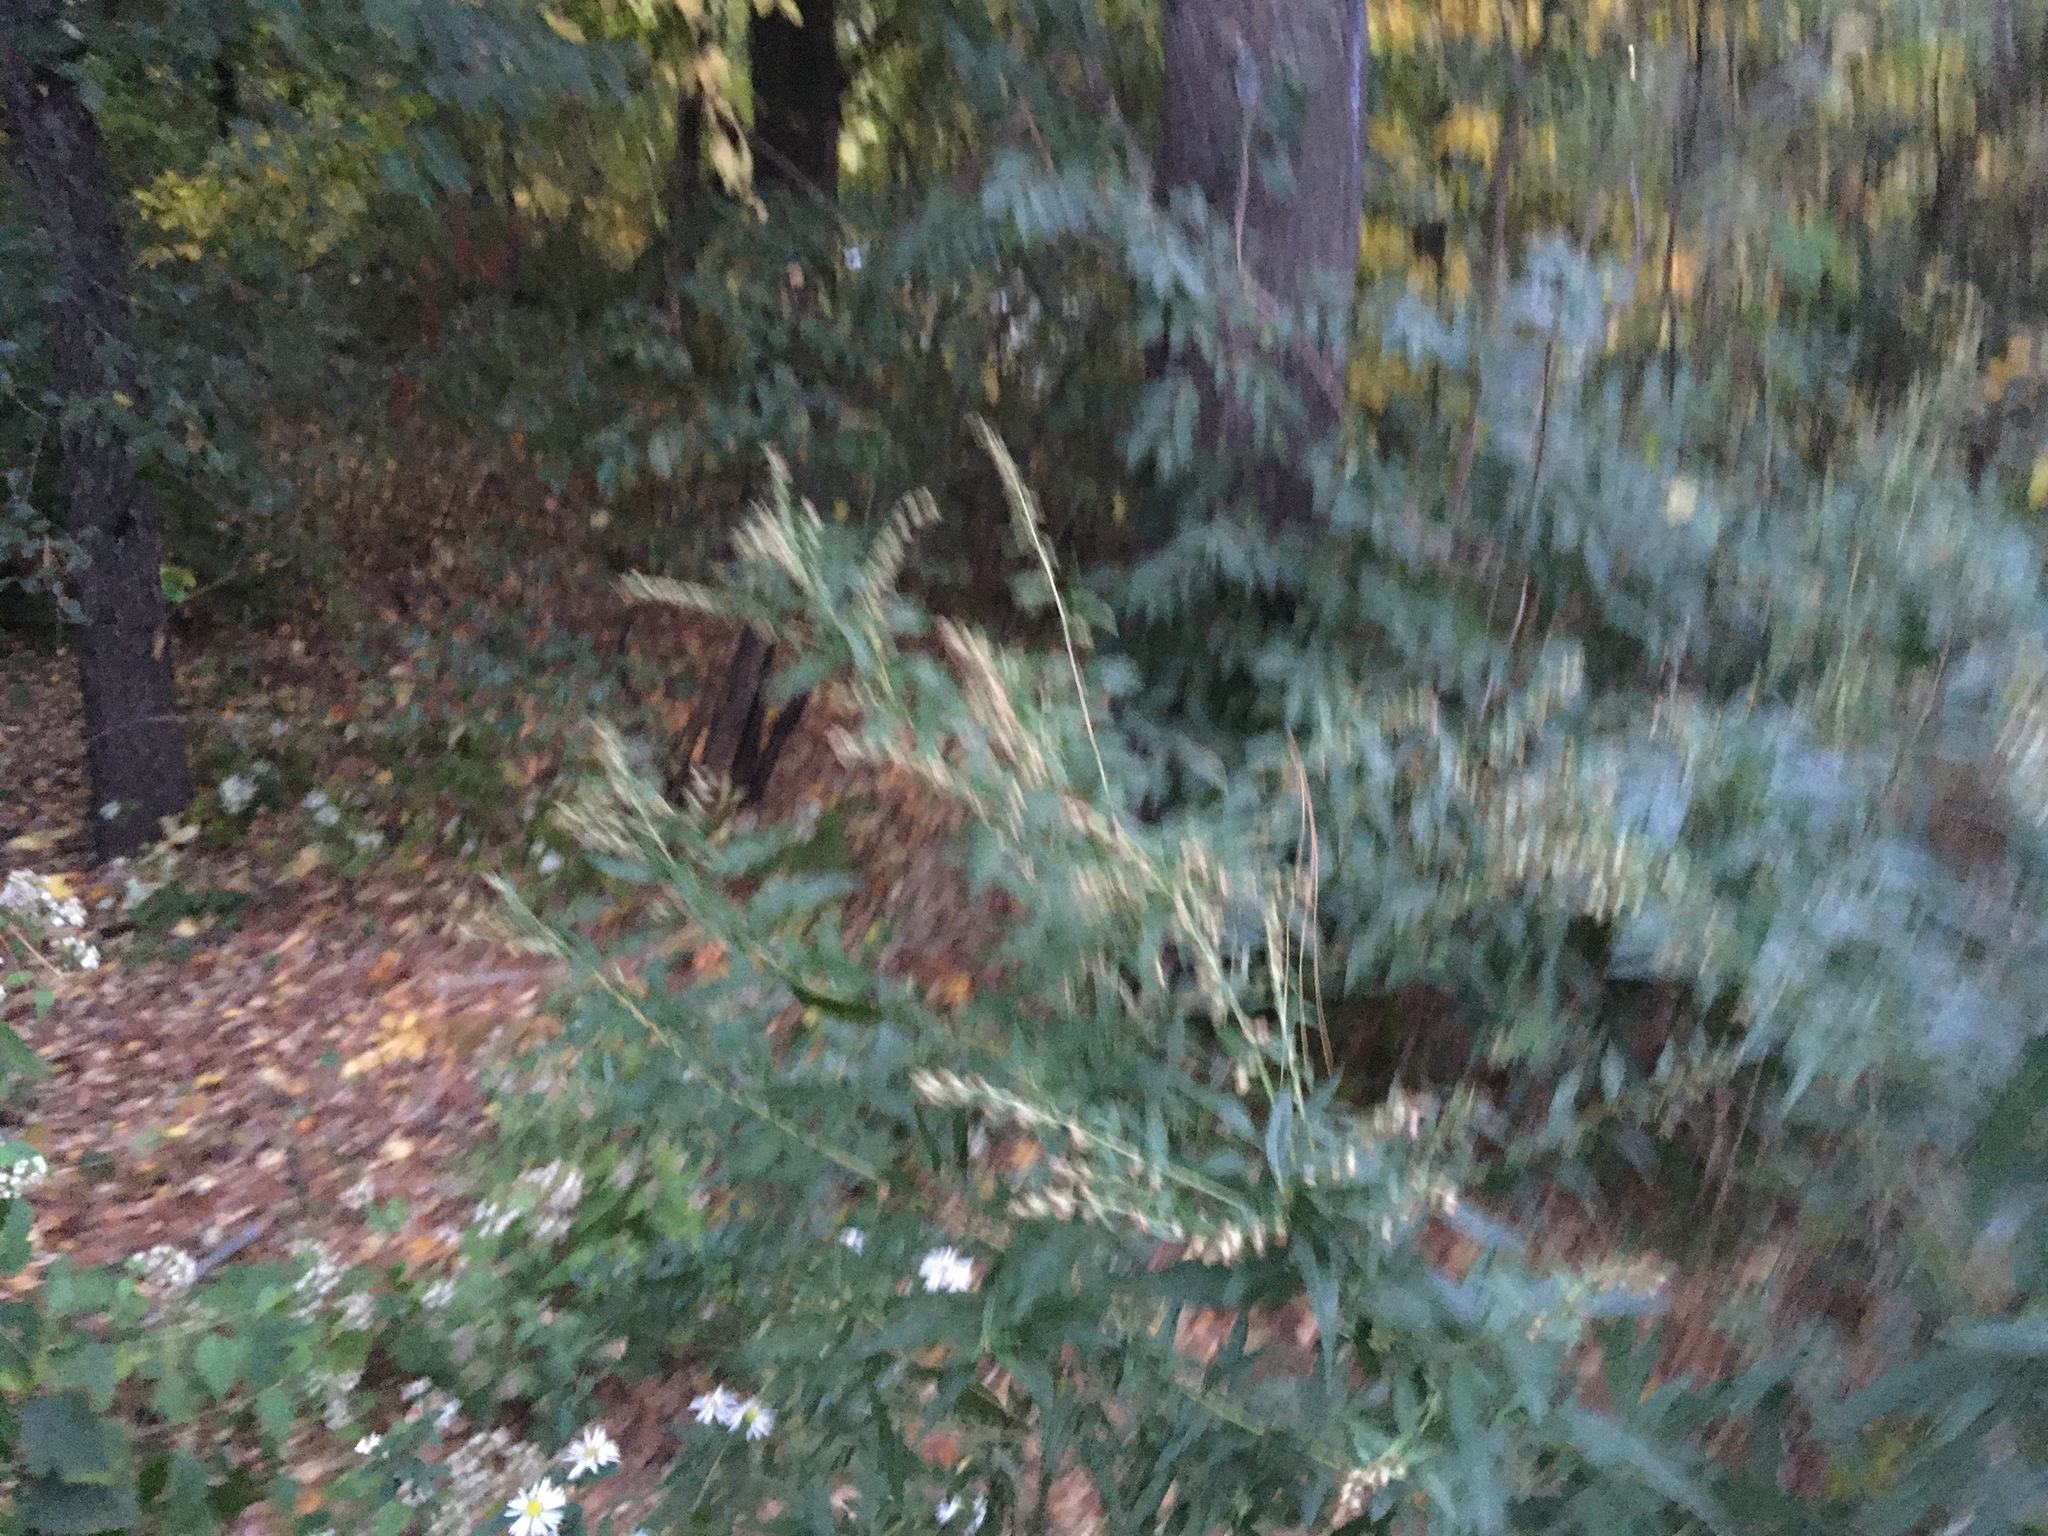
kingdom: Plantae
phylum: Tracheophyta
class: Magnoliopsida
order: Asterales
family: Asteraceae
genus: Artemisia
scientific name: Artemisia vulgaris
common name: Mugwort
